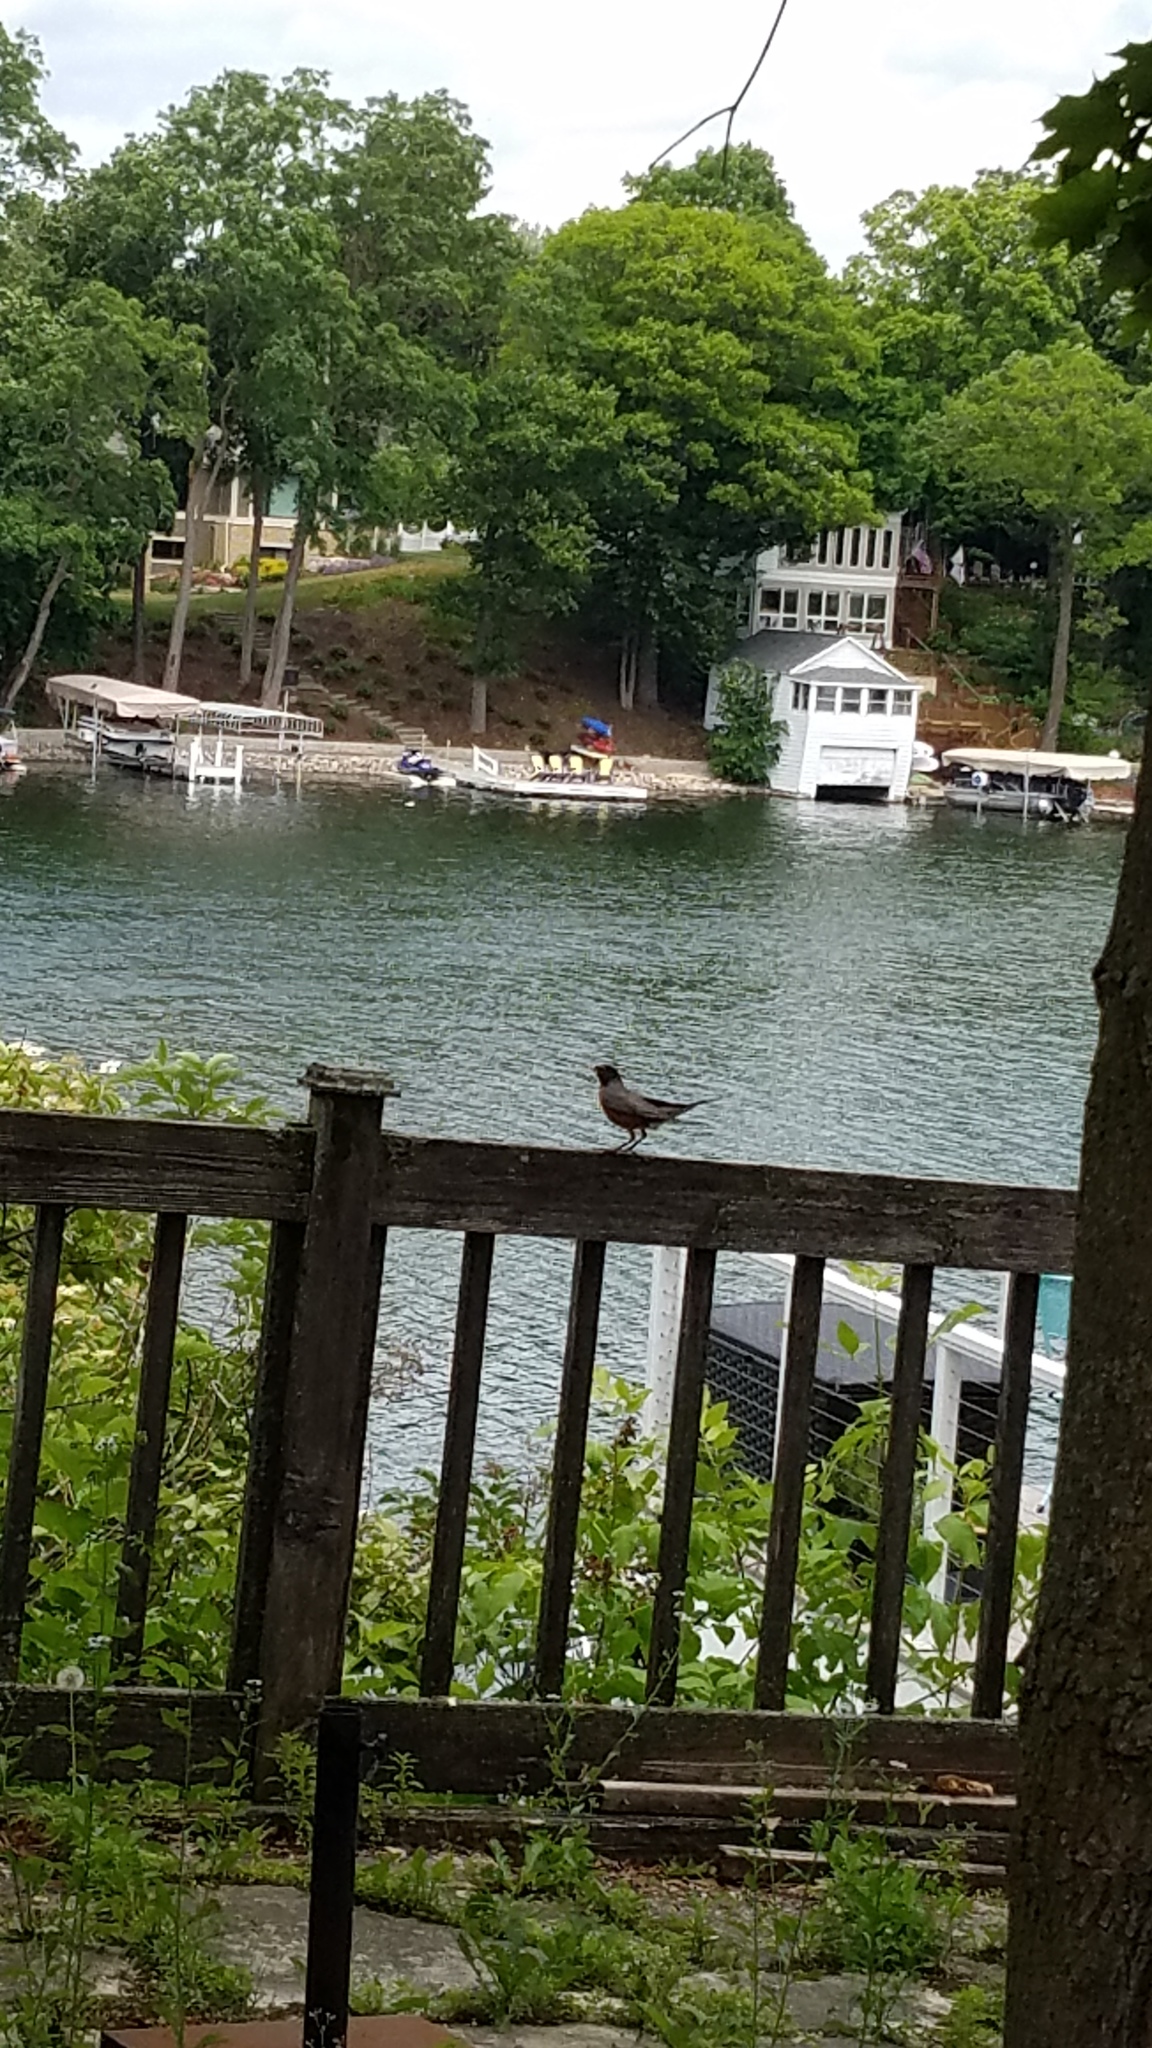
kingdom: Animalia
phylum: Chordata
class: Aves
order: Passeriformes
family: Turdidae
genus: Turdus
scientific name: Turdus migratorius
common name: American robin
